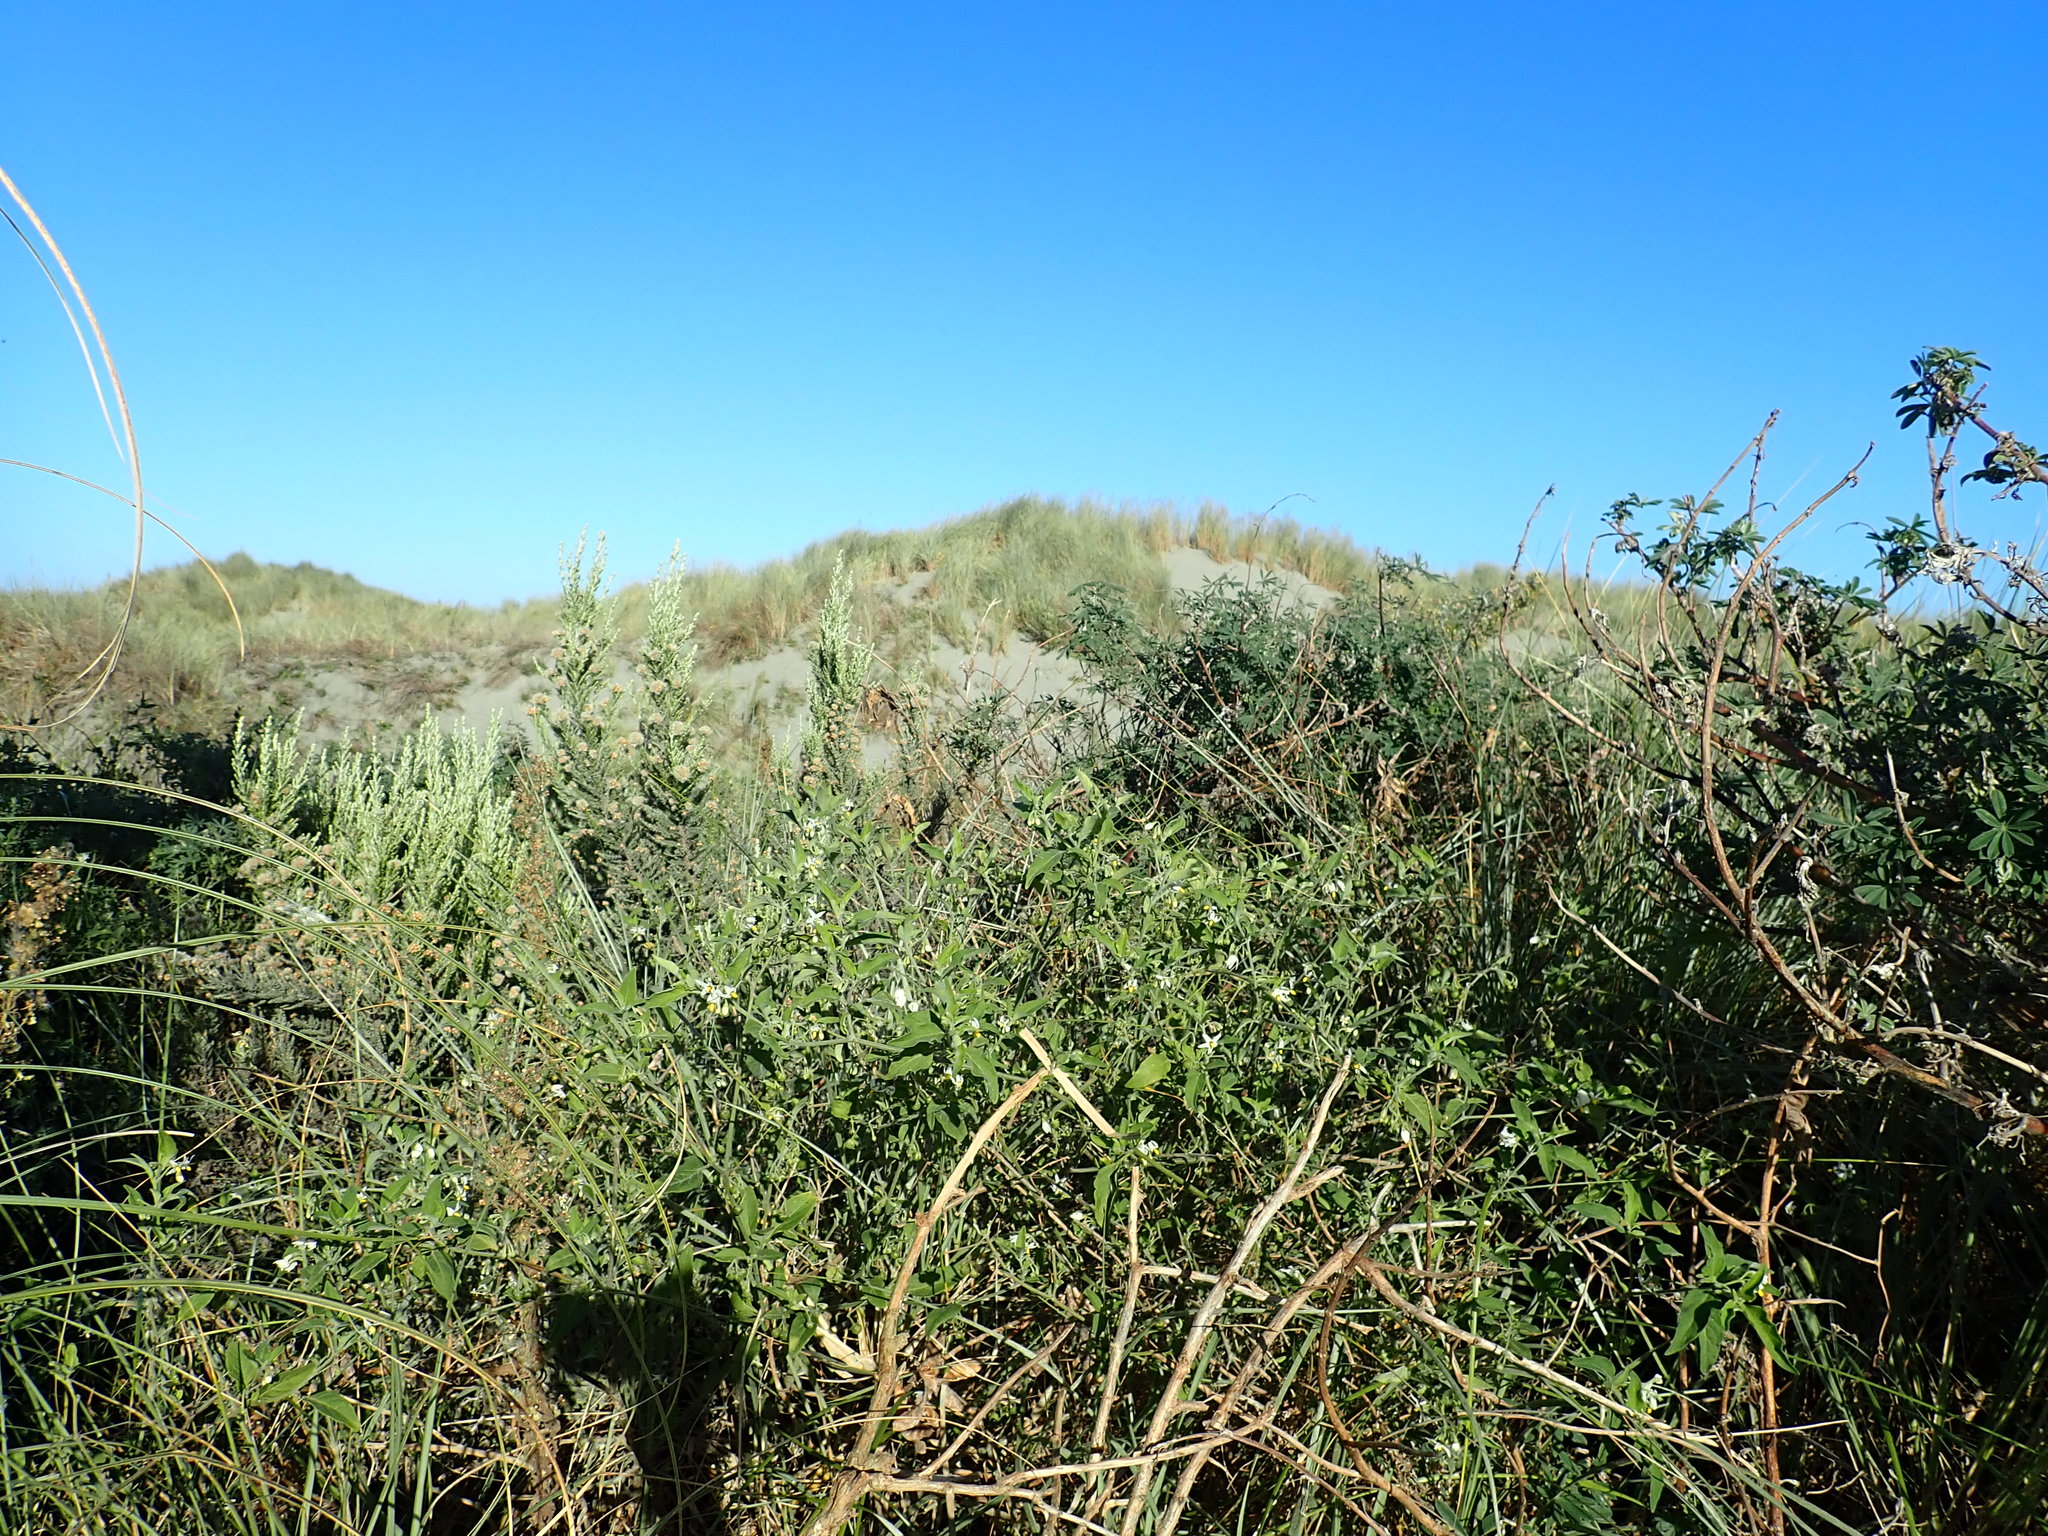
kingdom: Plantae
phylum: Tracheophyta
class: Magnoliopsida
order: Solanales
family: Solanaceae
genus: Solanum
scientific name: Solanum chenopodioides
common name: Tall nightshade
